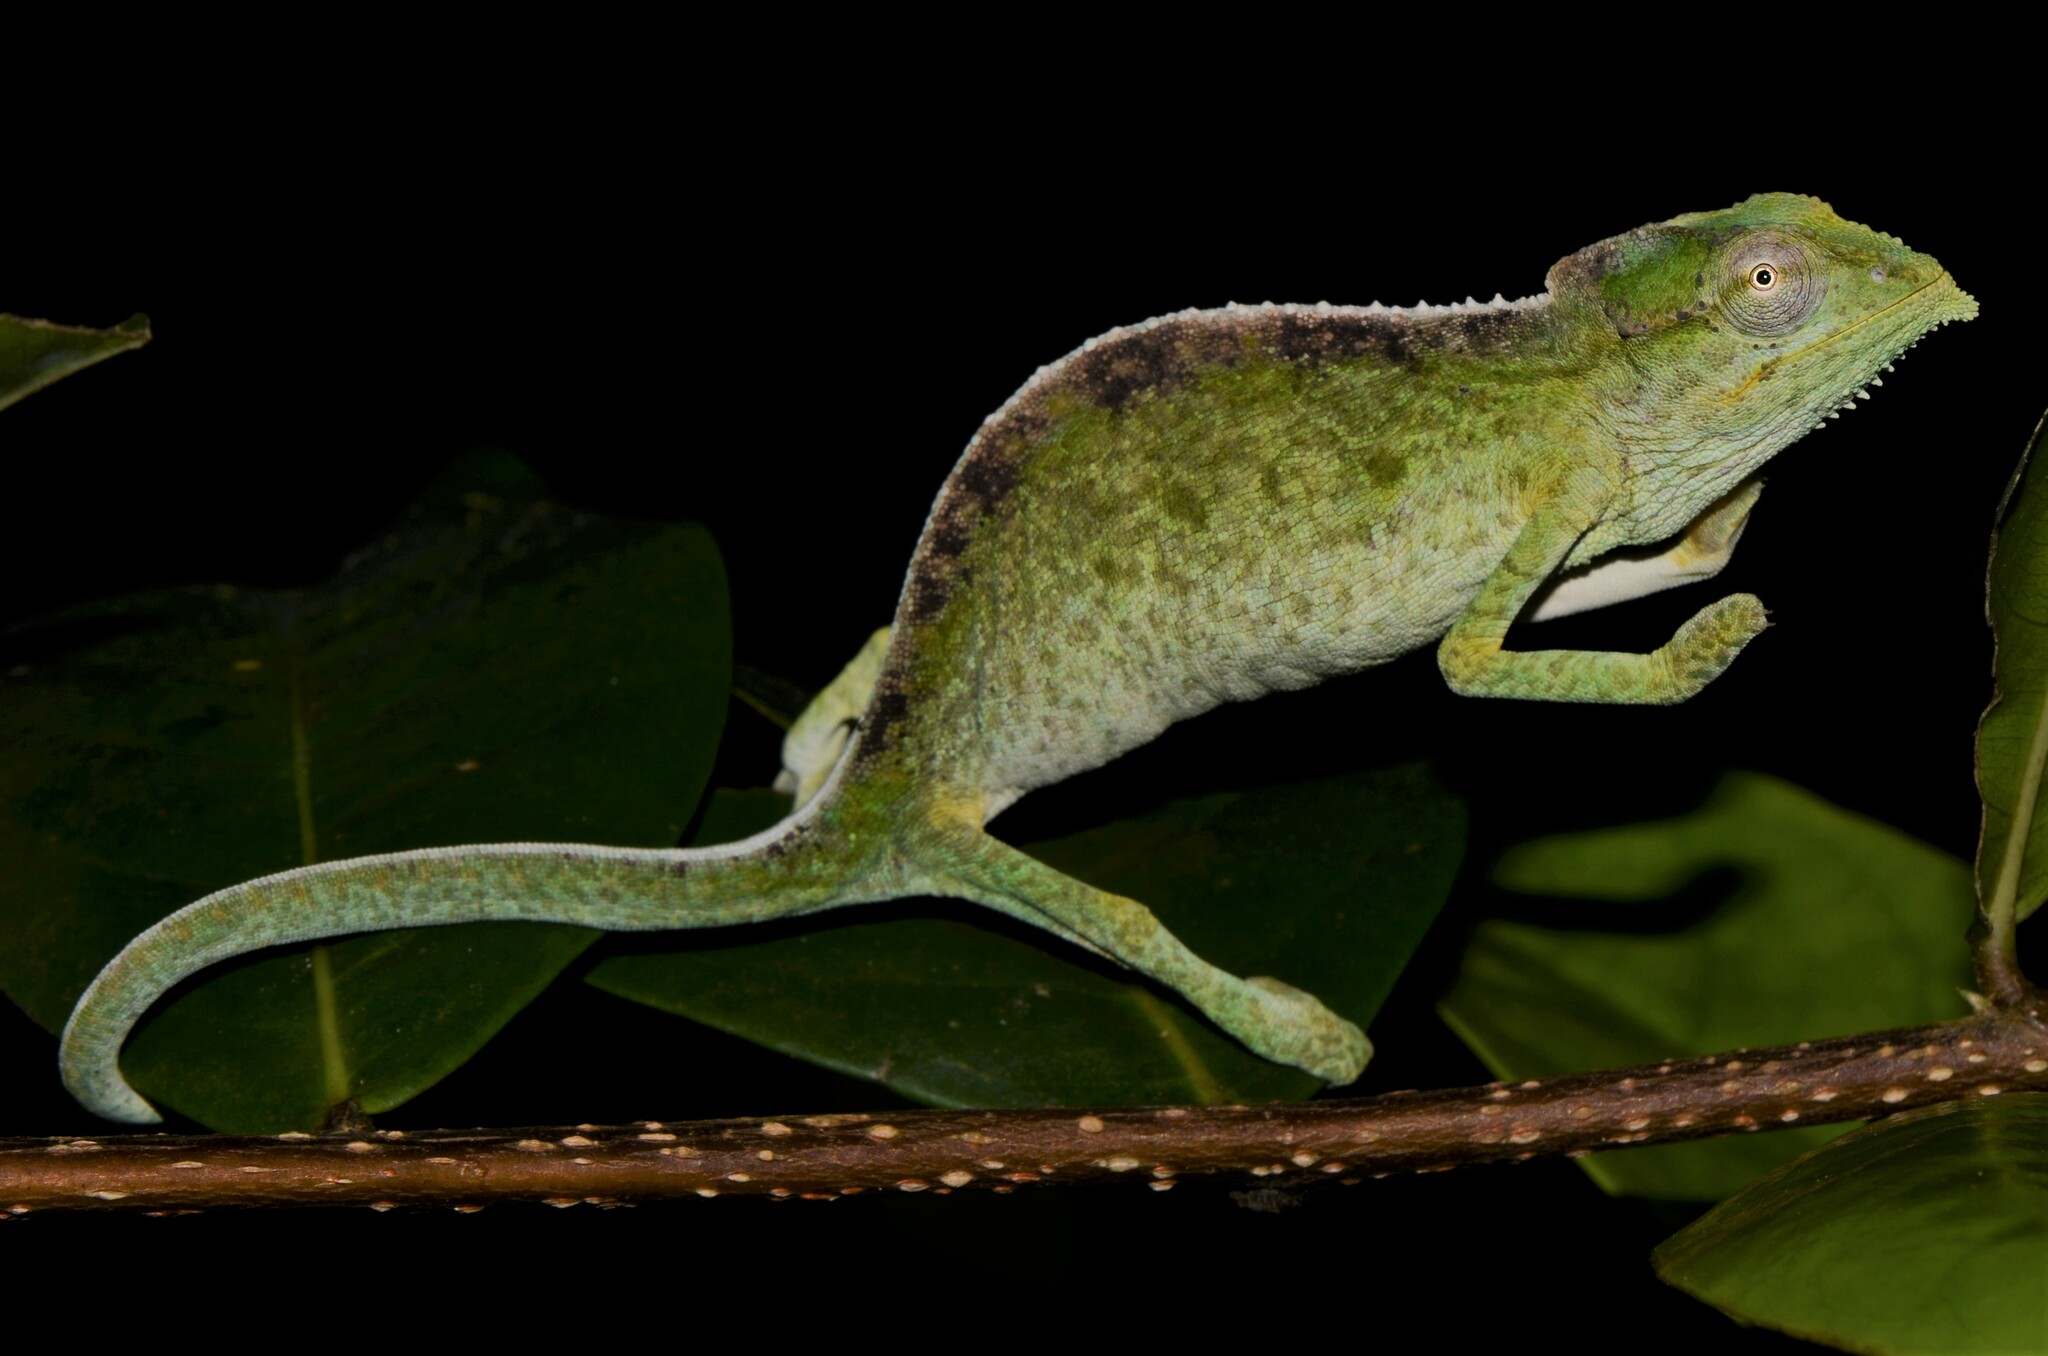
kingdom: Animalia
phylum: Chordata
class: Squamata
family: Chamaeleonidae
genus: Archaius
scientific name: Archaius tigris
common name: Seychelles tiger chameleon
